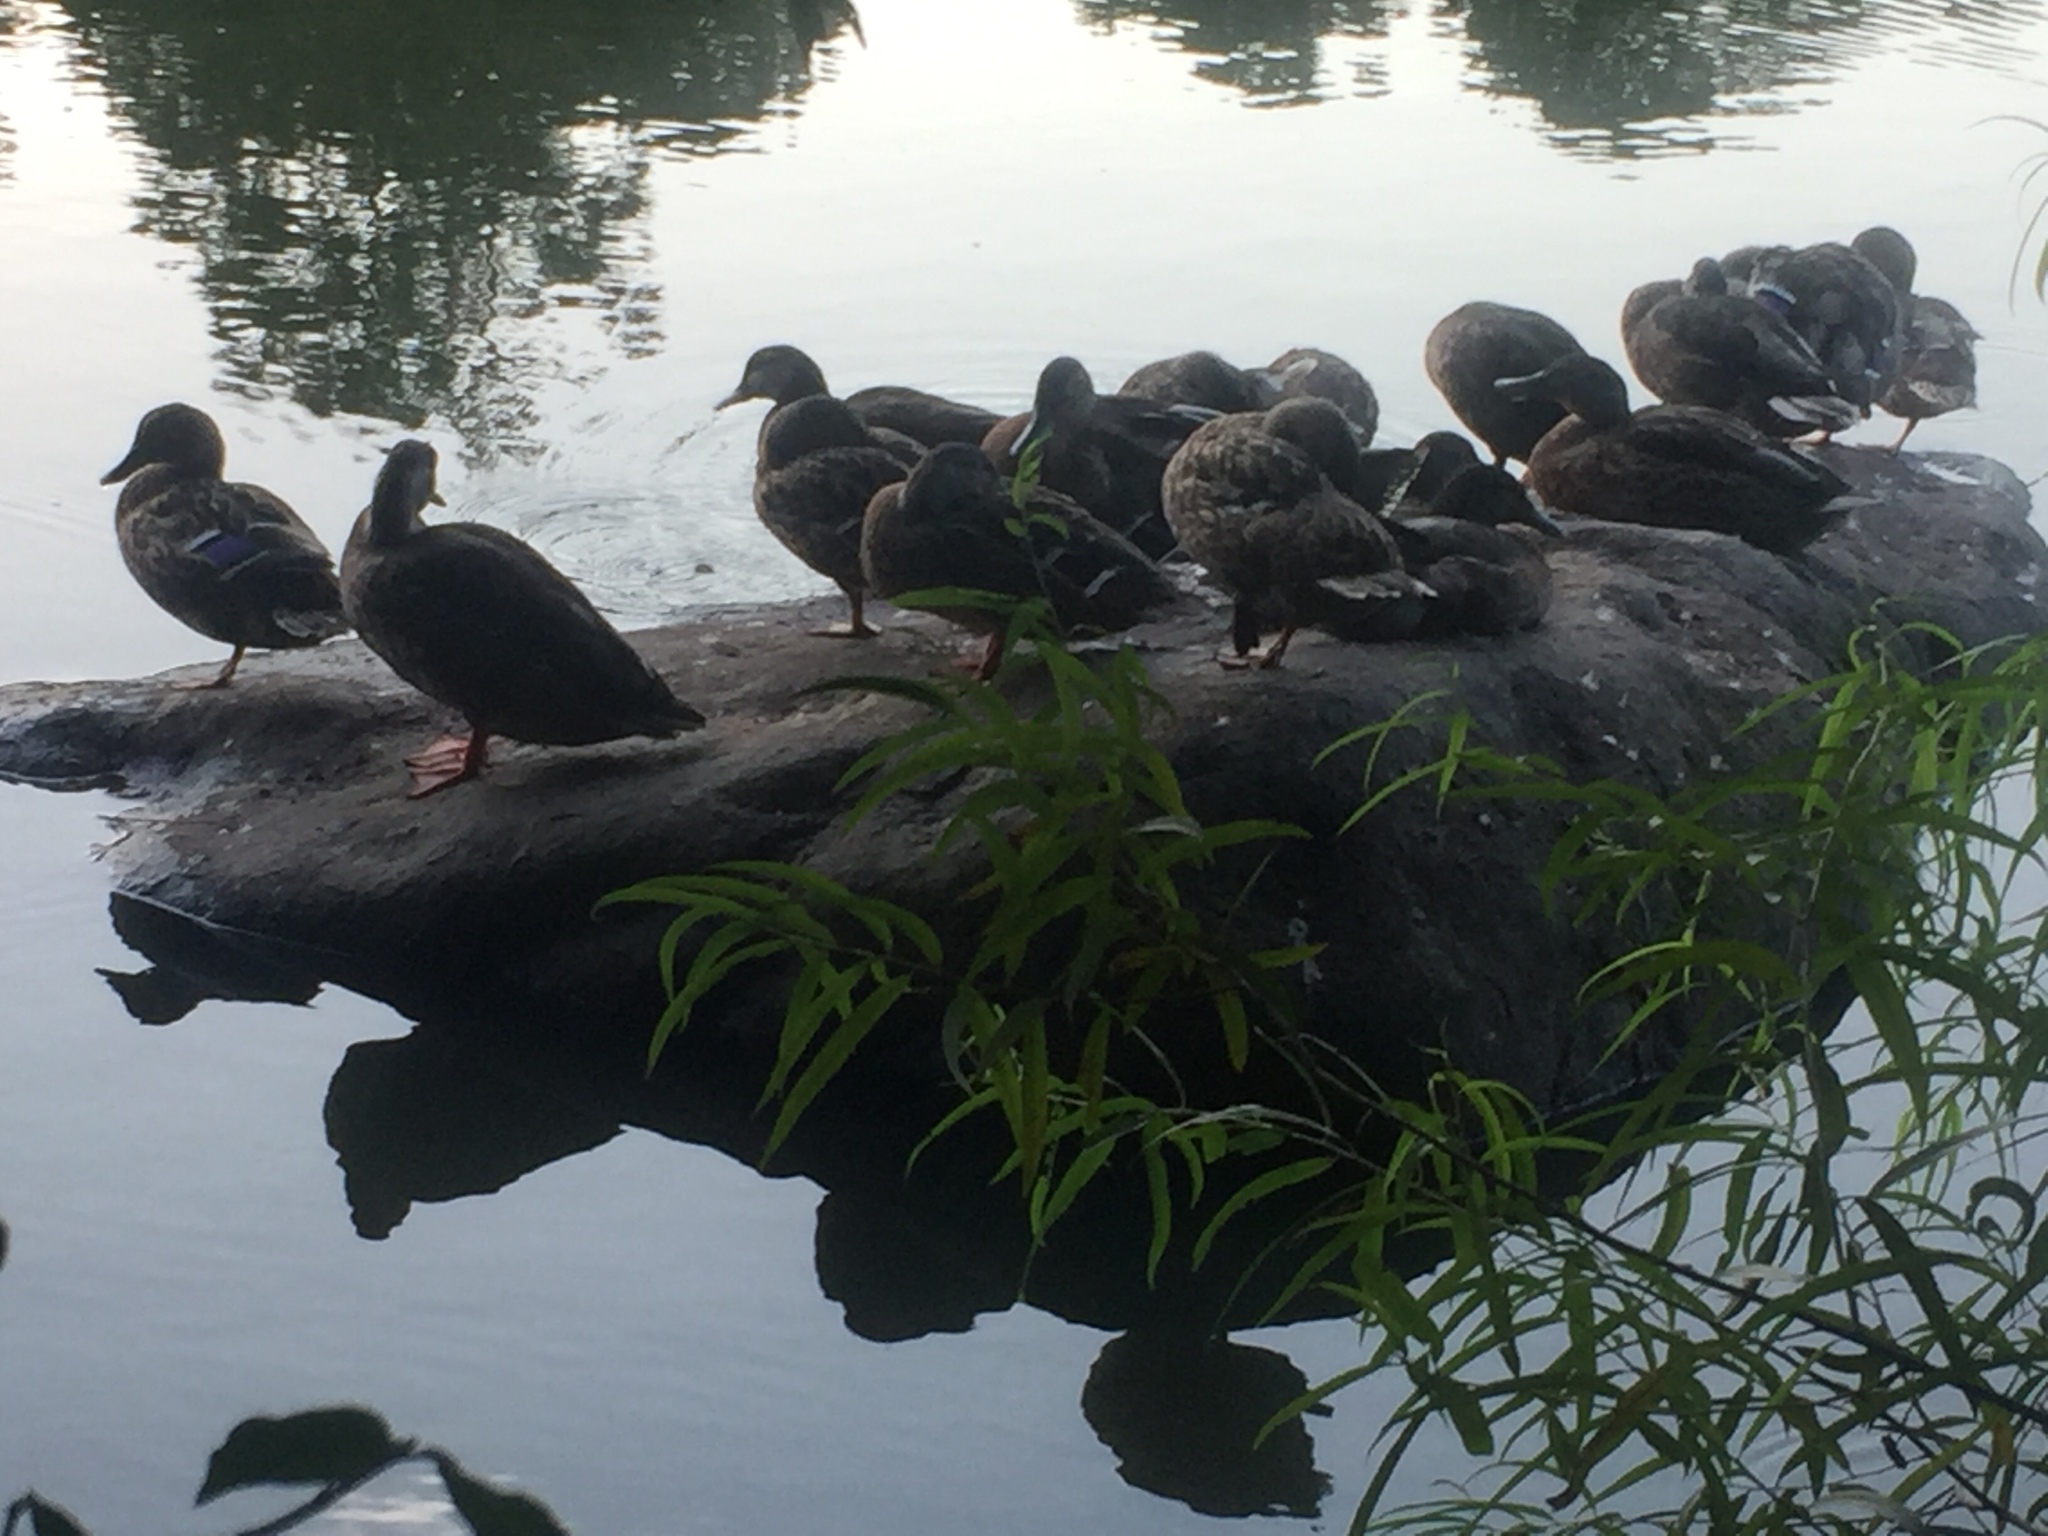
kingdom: Animalia
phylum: Chordata
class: Aves
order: Anseriformes
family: Anatidae
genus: Anas
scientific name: Anas platyrhynchos
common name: Mallard
